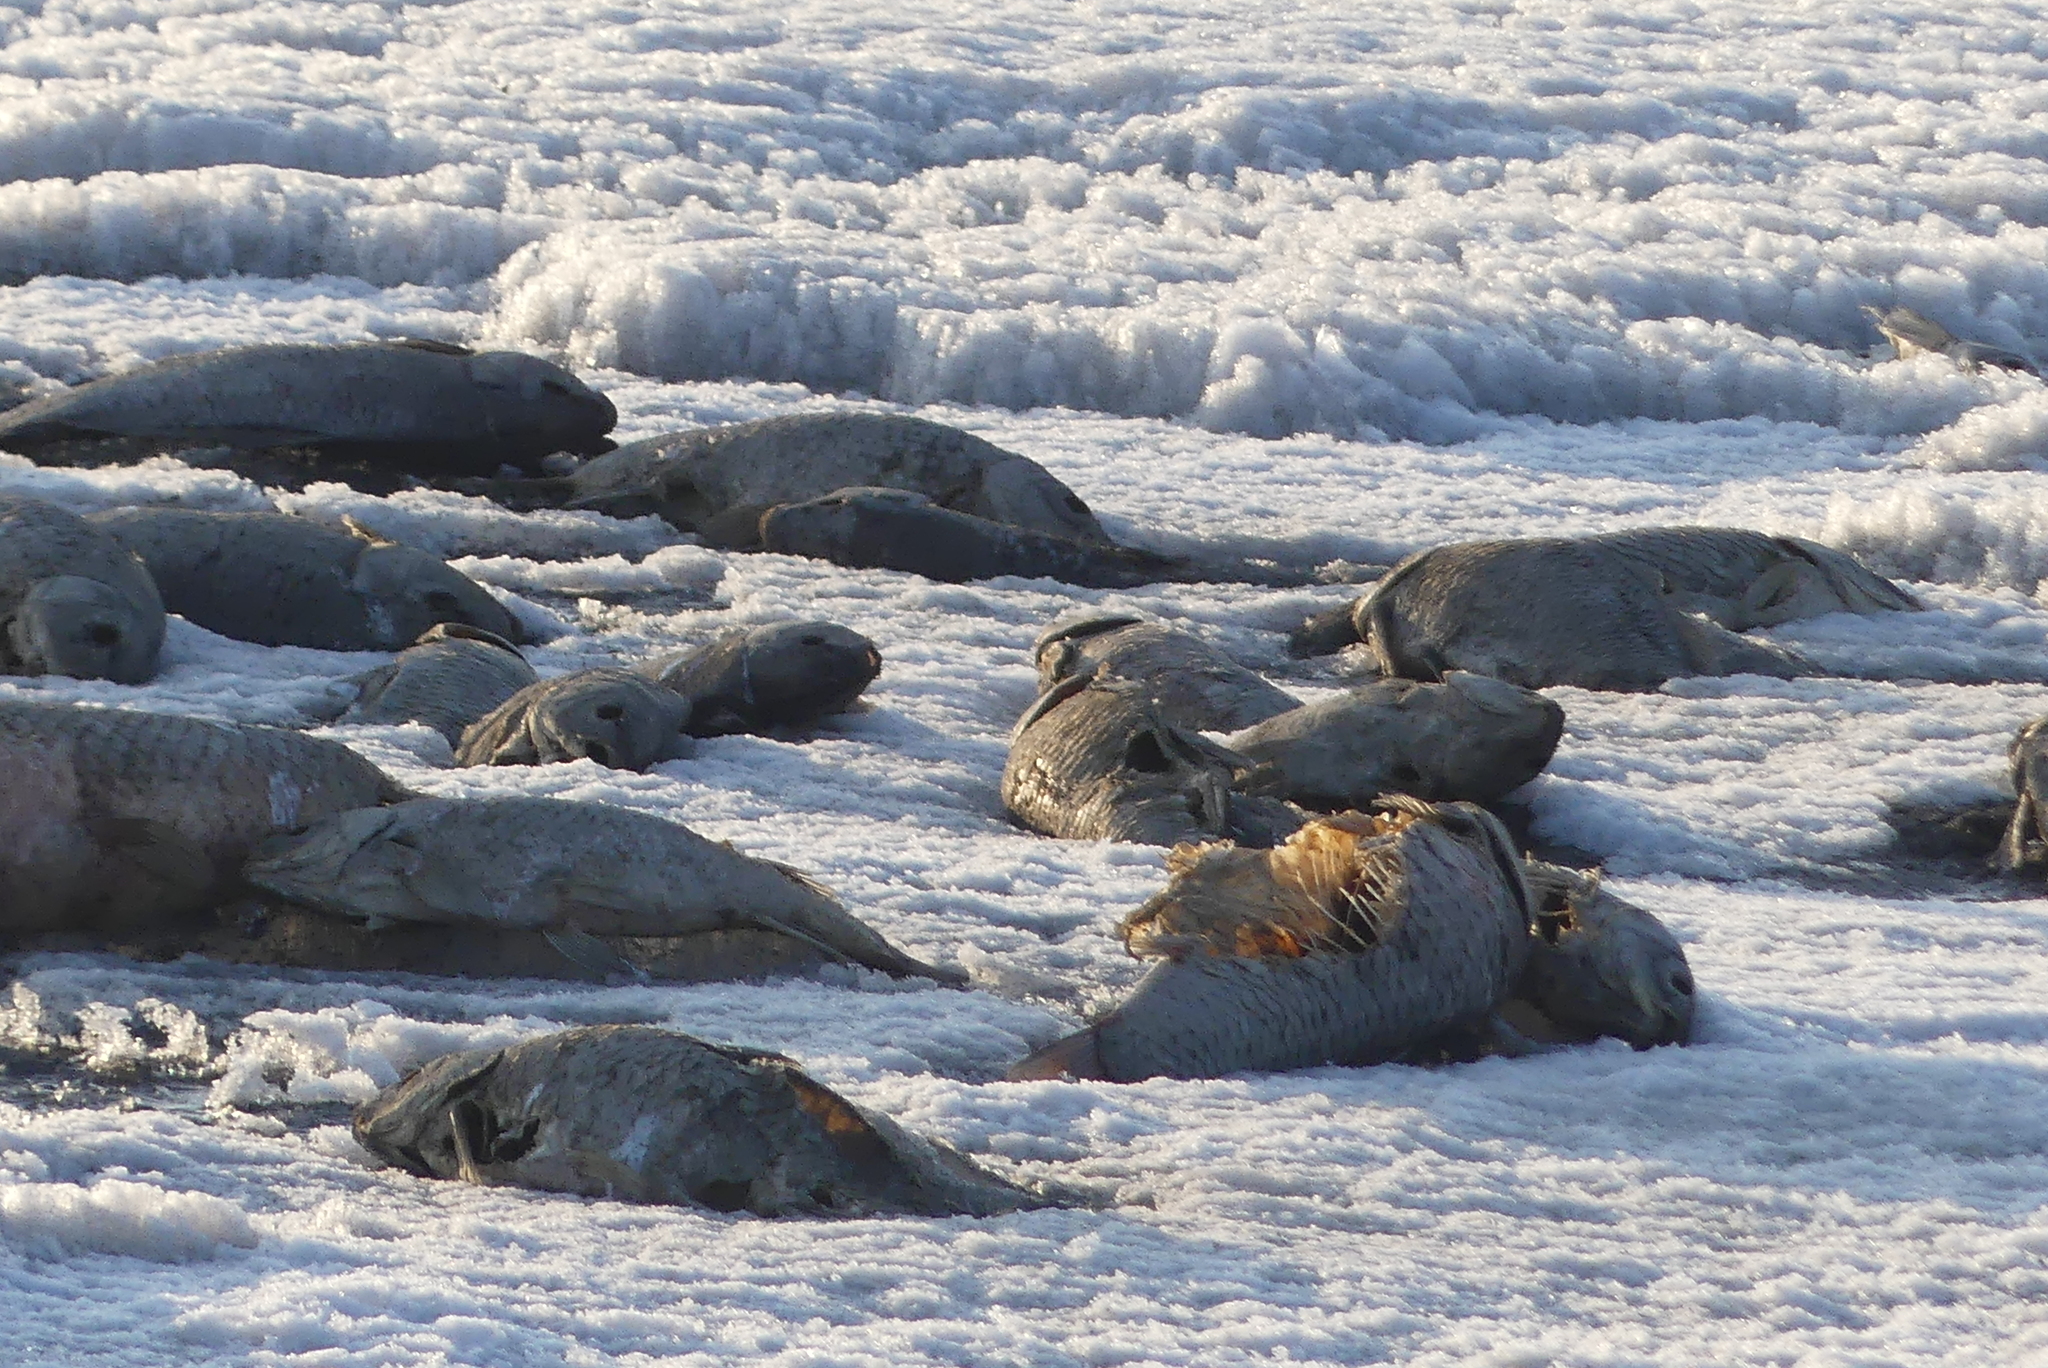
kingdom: Animalia
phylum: Chordata
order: Cypriniformes
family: Cyprinidae
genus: Cyprinus
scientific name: Cyprinus carpio
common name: Common carp
